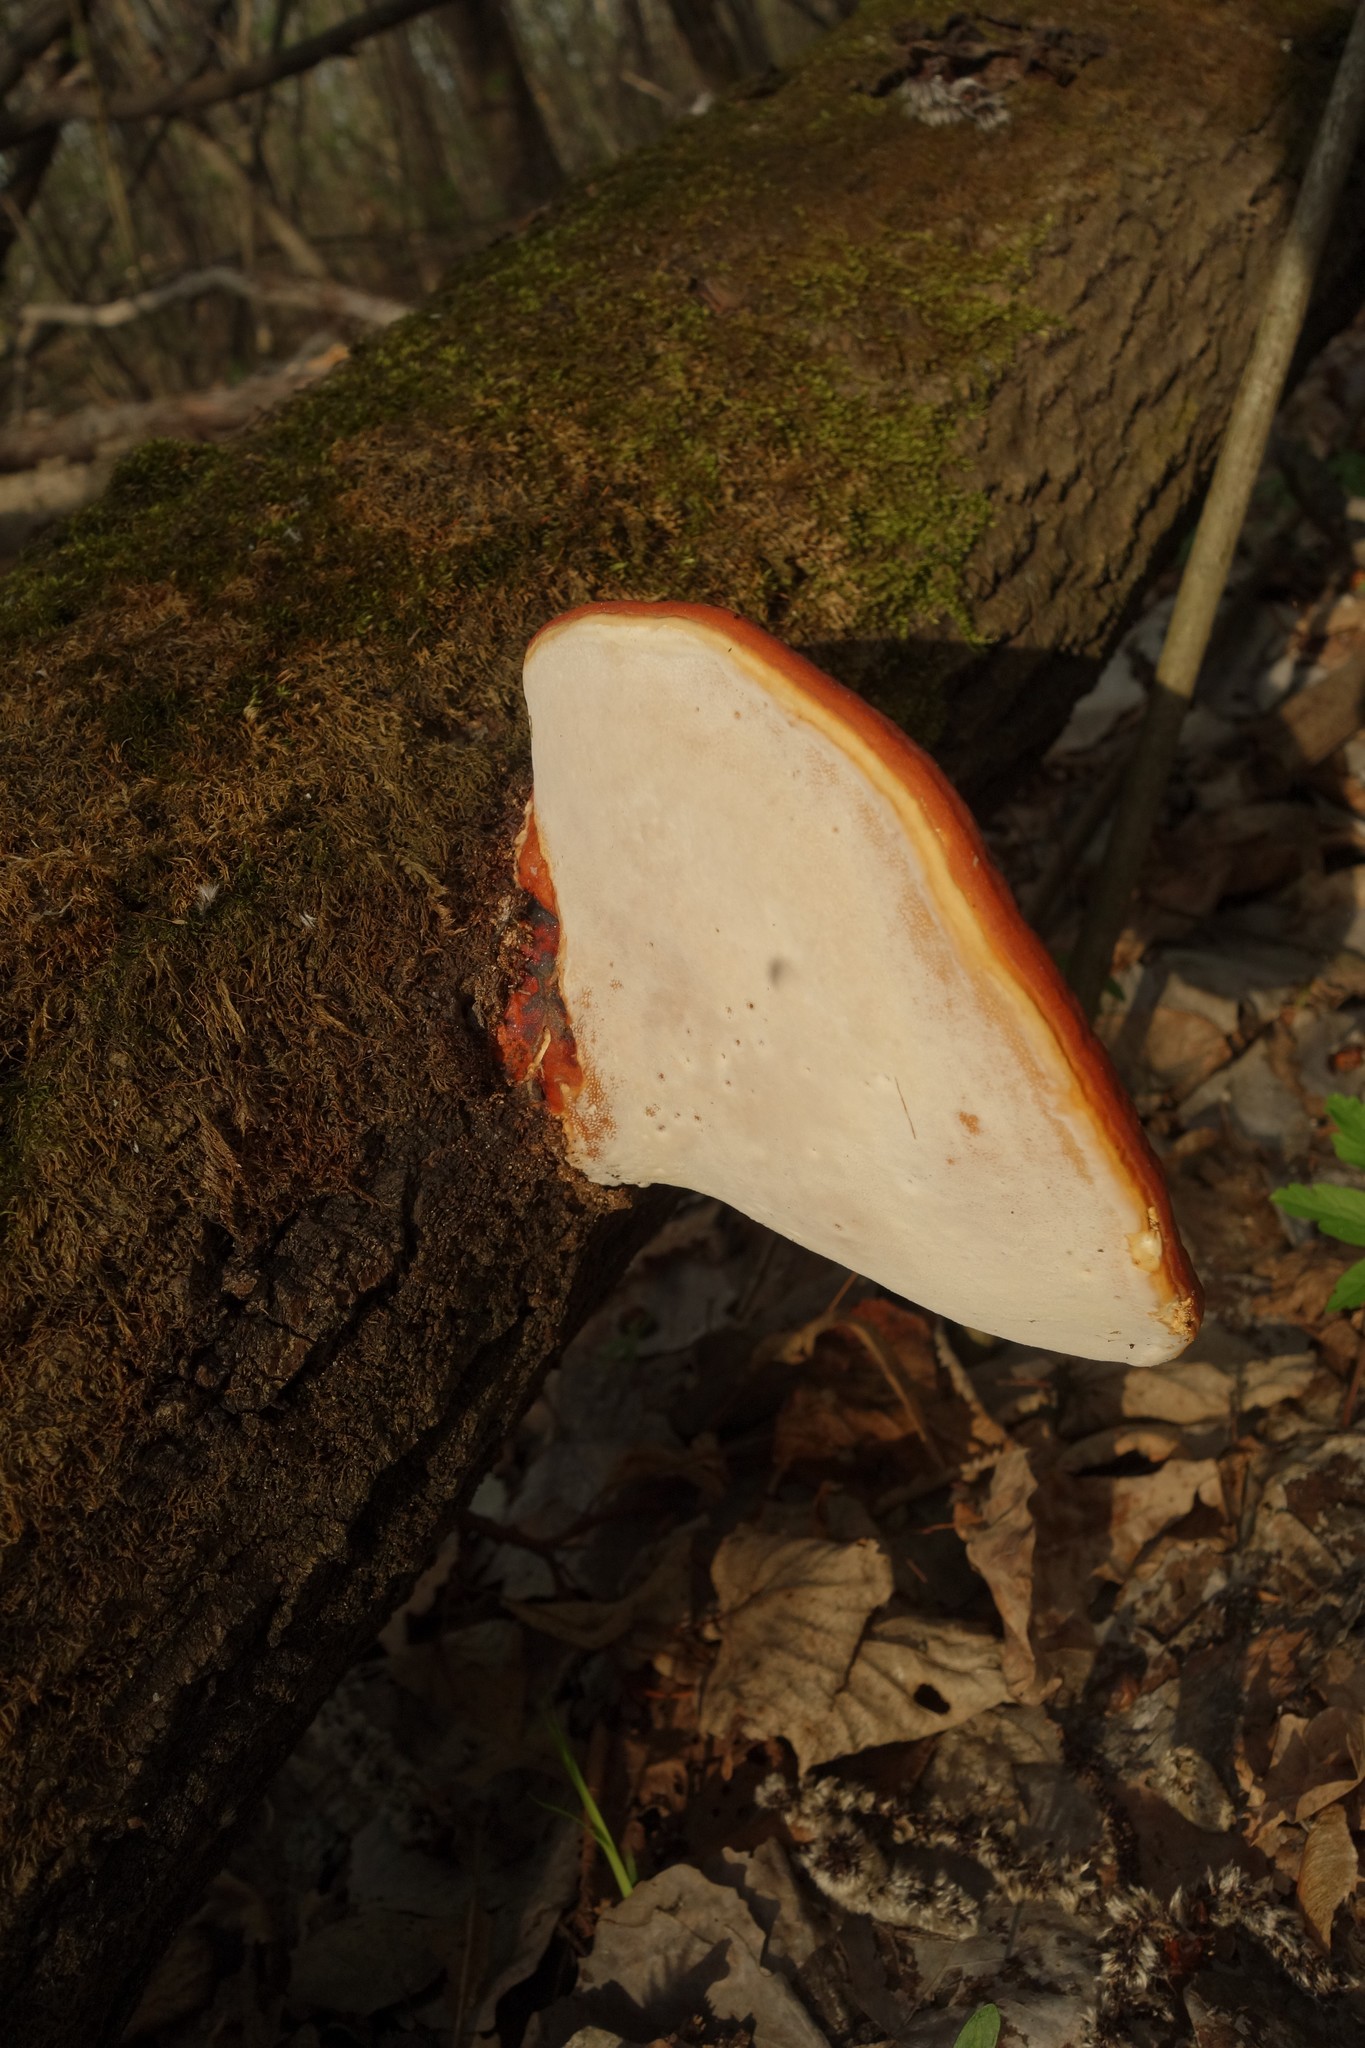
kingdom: Fungi
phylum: Basidiomycota
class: Agaricomycetes
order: Polyporales
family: Fomitopsidaceae
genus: Fomitopsis
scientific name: Fomitopsis pinicola
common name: Red-belted bracket
